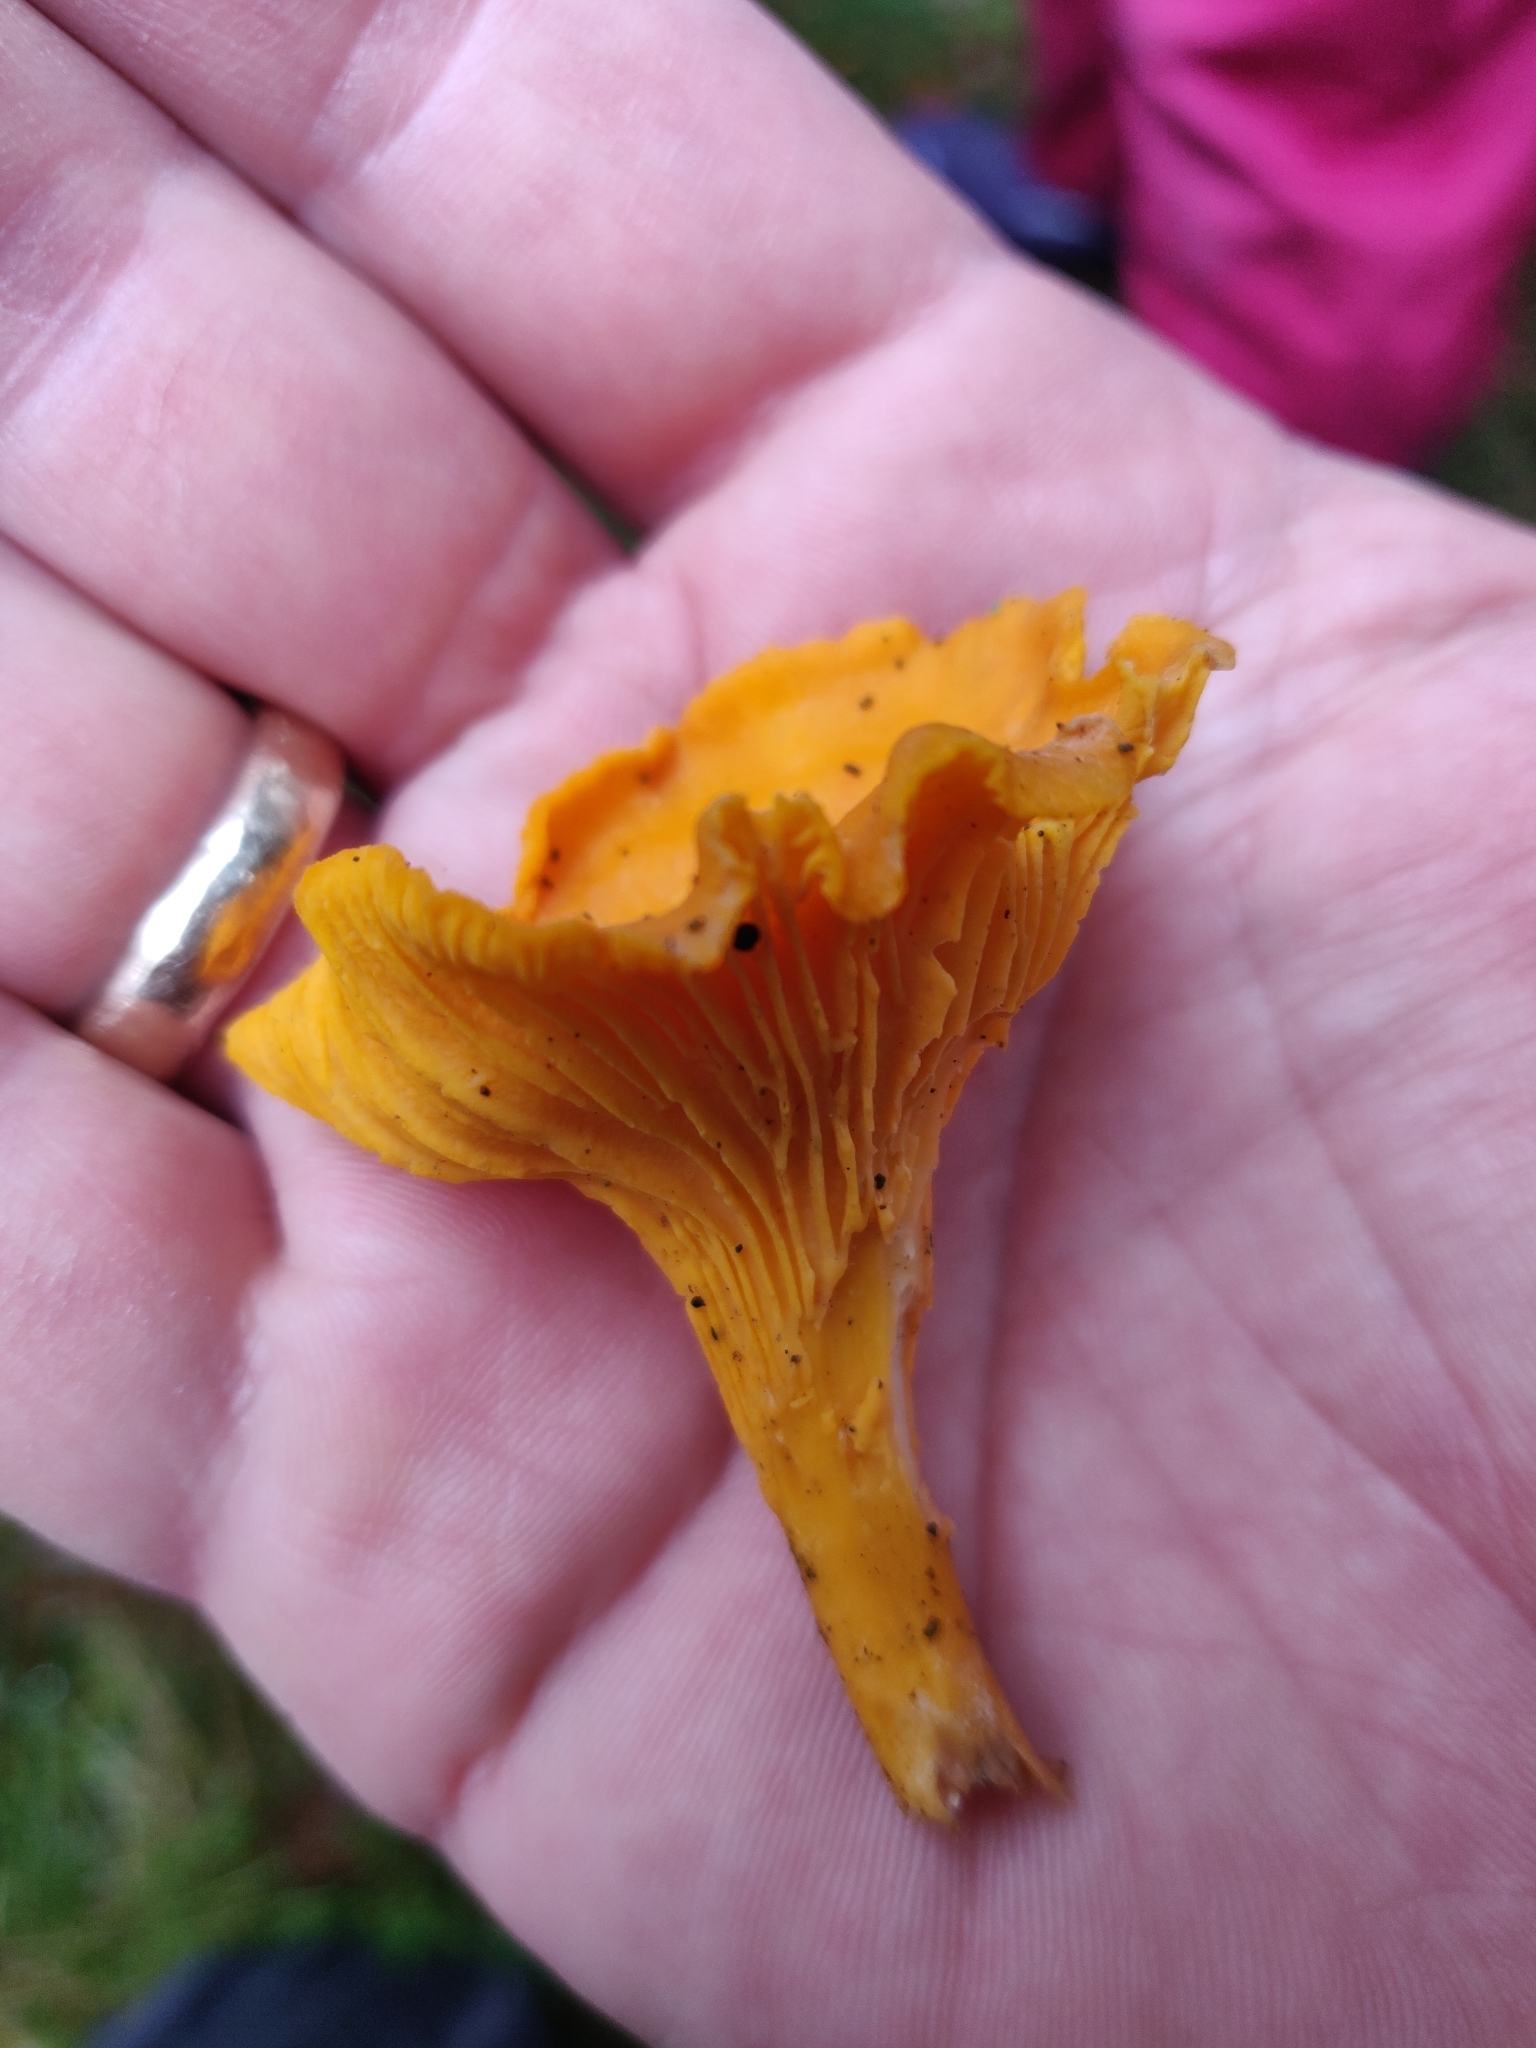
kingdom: Fungi
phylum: Basidiomycota
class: Agaricomycetes
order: Cantharellales
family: Hydnaceae
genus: Cantharellus
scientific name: Cantharellus cibarius
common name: Chanterelle
